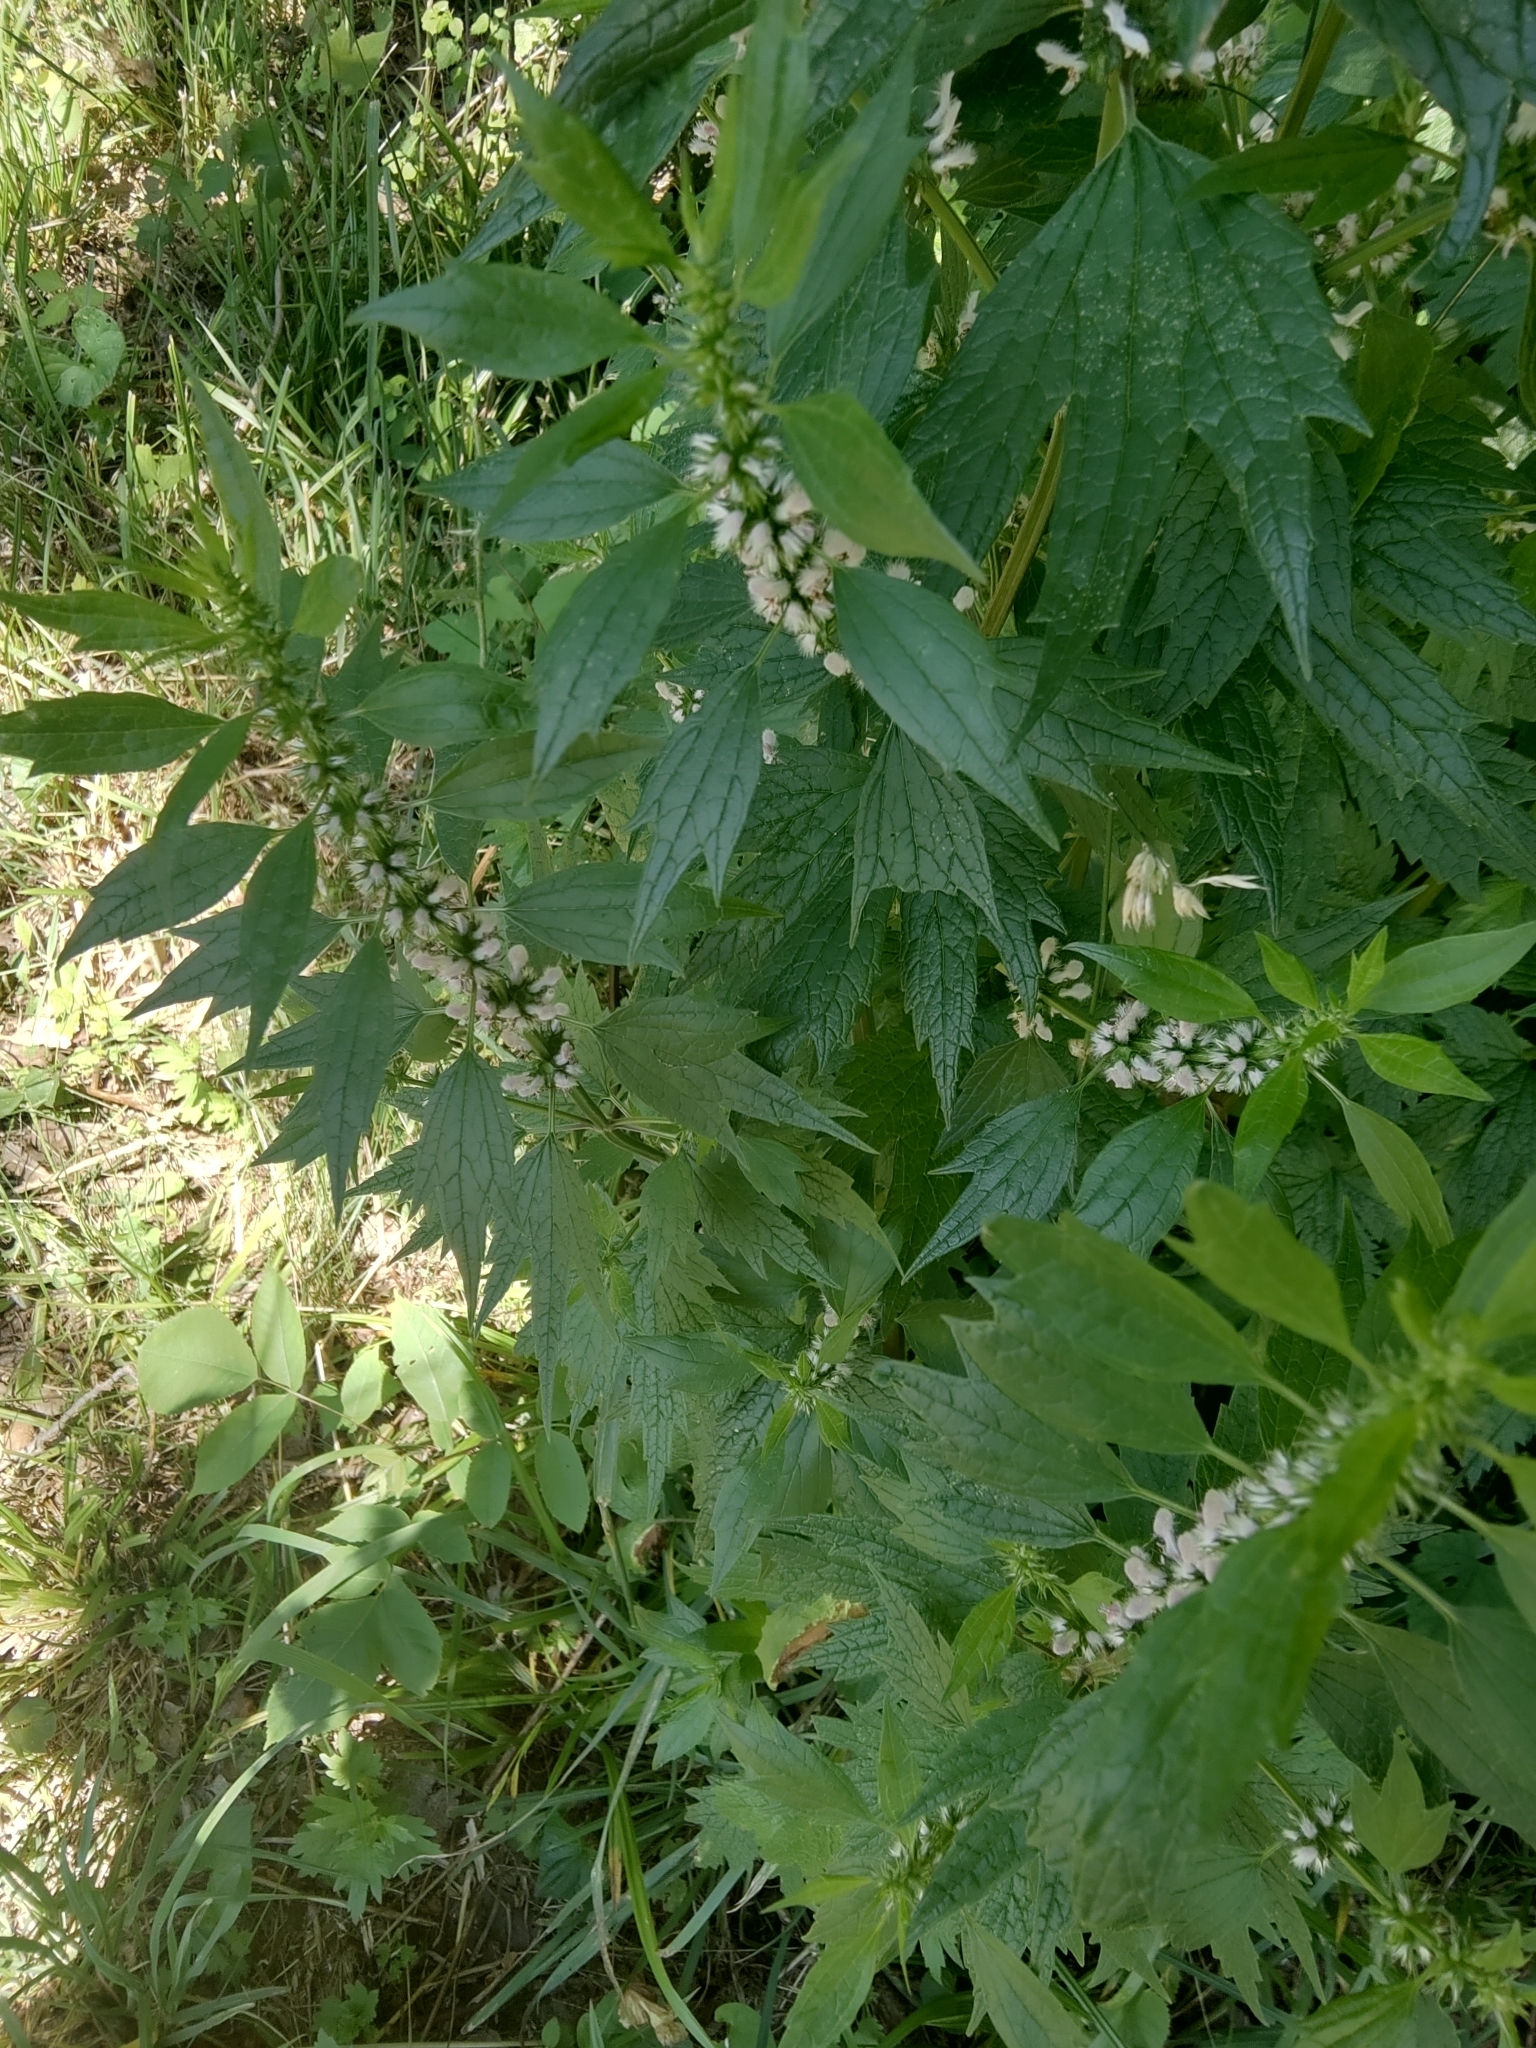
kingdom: Plantae
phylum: Tracheophyta
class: Magnoliopsida
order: Lamiales
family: Lamiaceae
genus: Leonurus
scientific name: Leonurus cardiaca
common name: Motherwort
